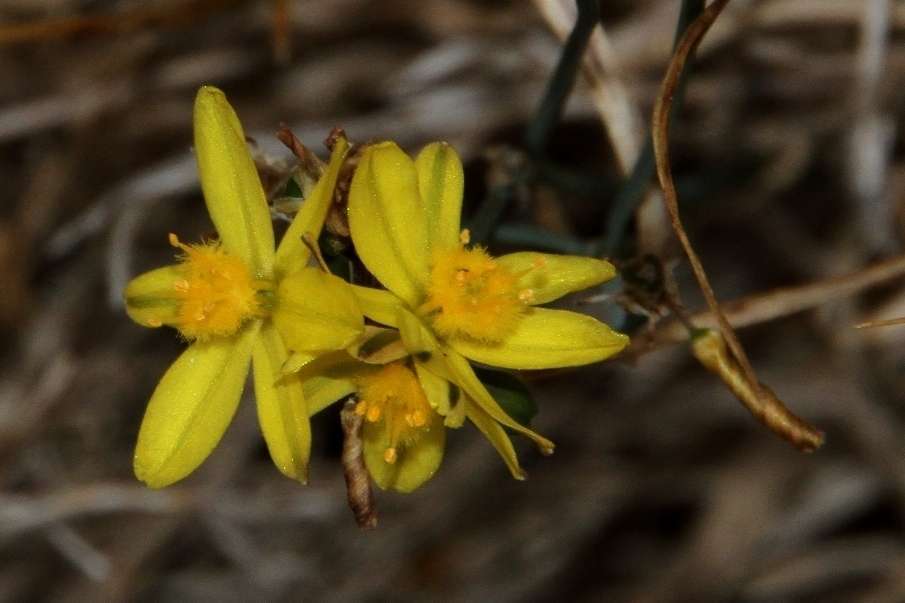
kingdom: Plantae
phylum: Tracheophyta
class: Liliopsida
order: Asparagales
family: Asphodelaceae
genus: Tricoryne
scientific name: Tricoryne elatior
